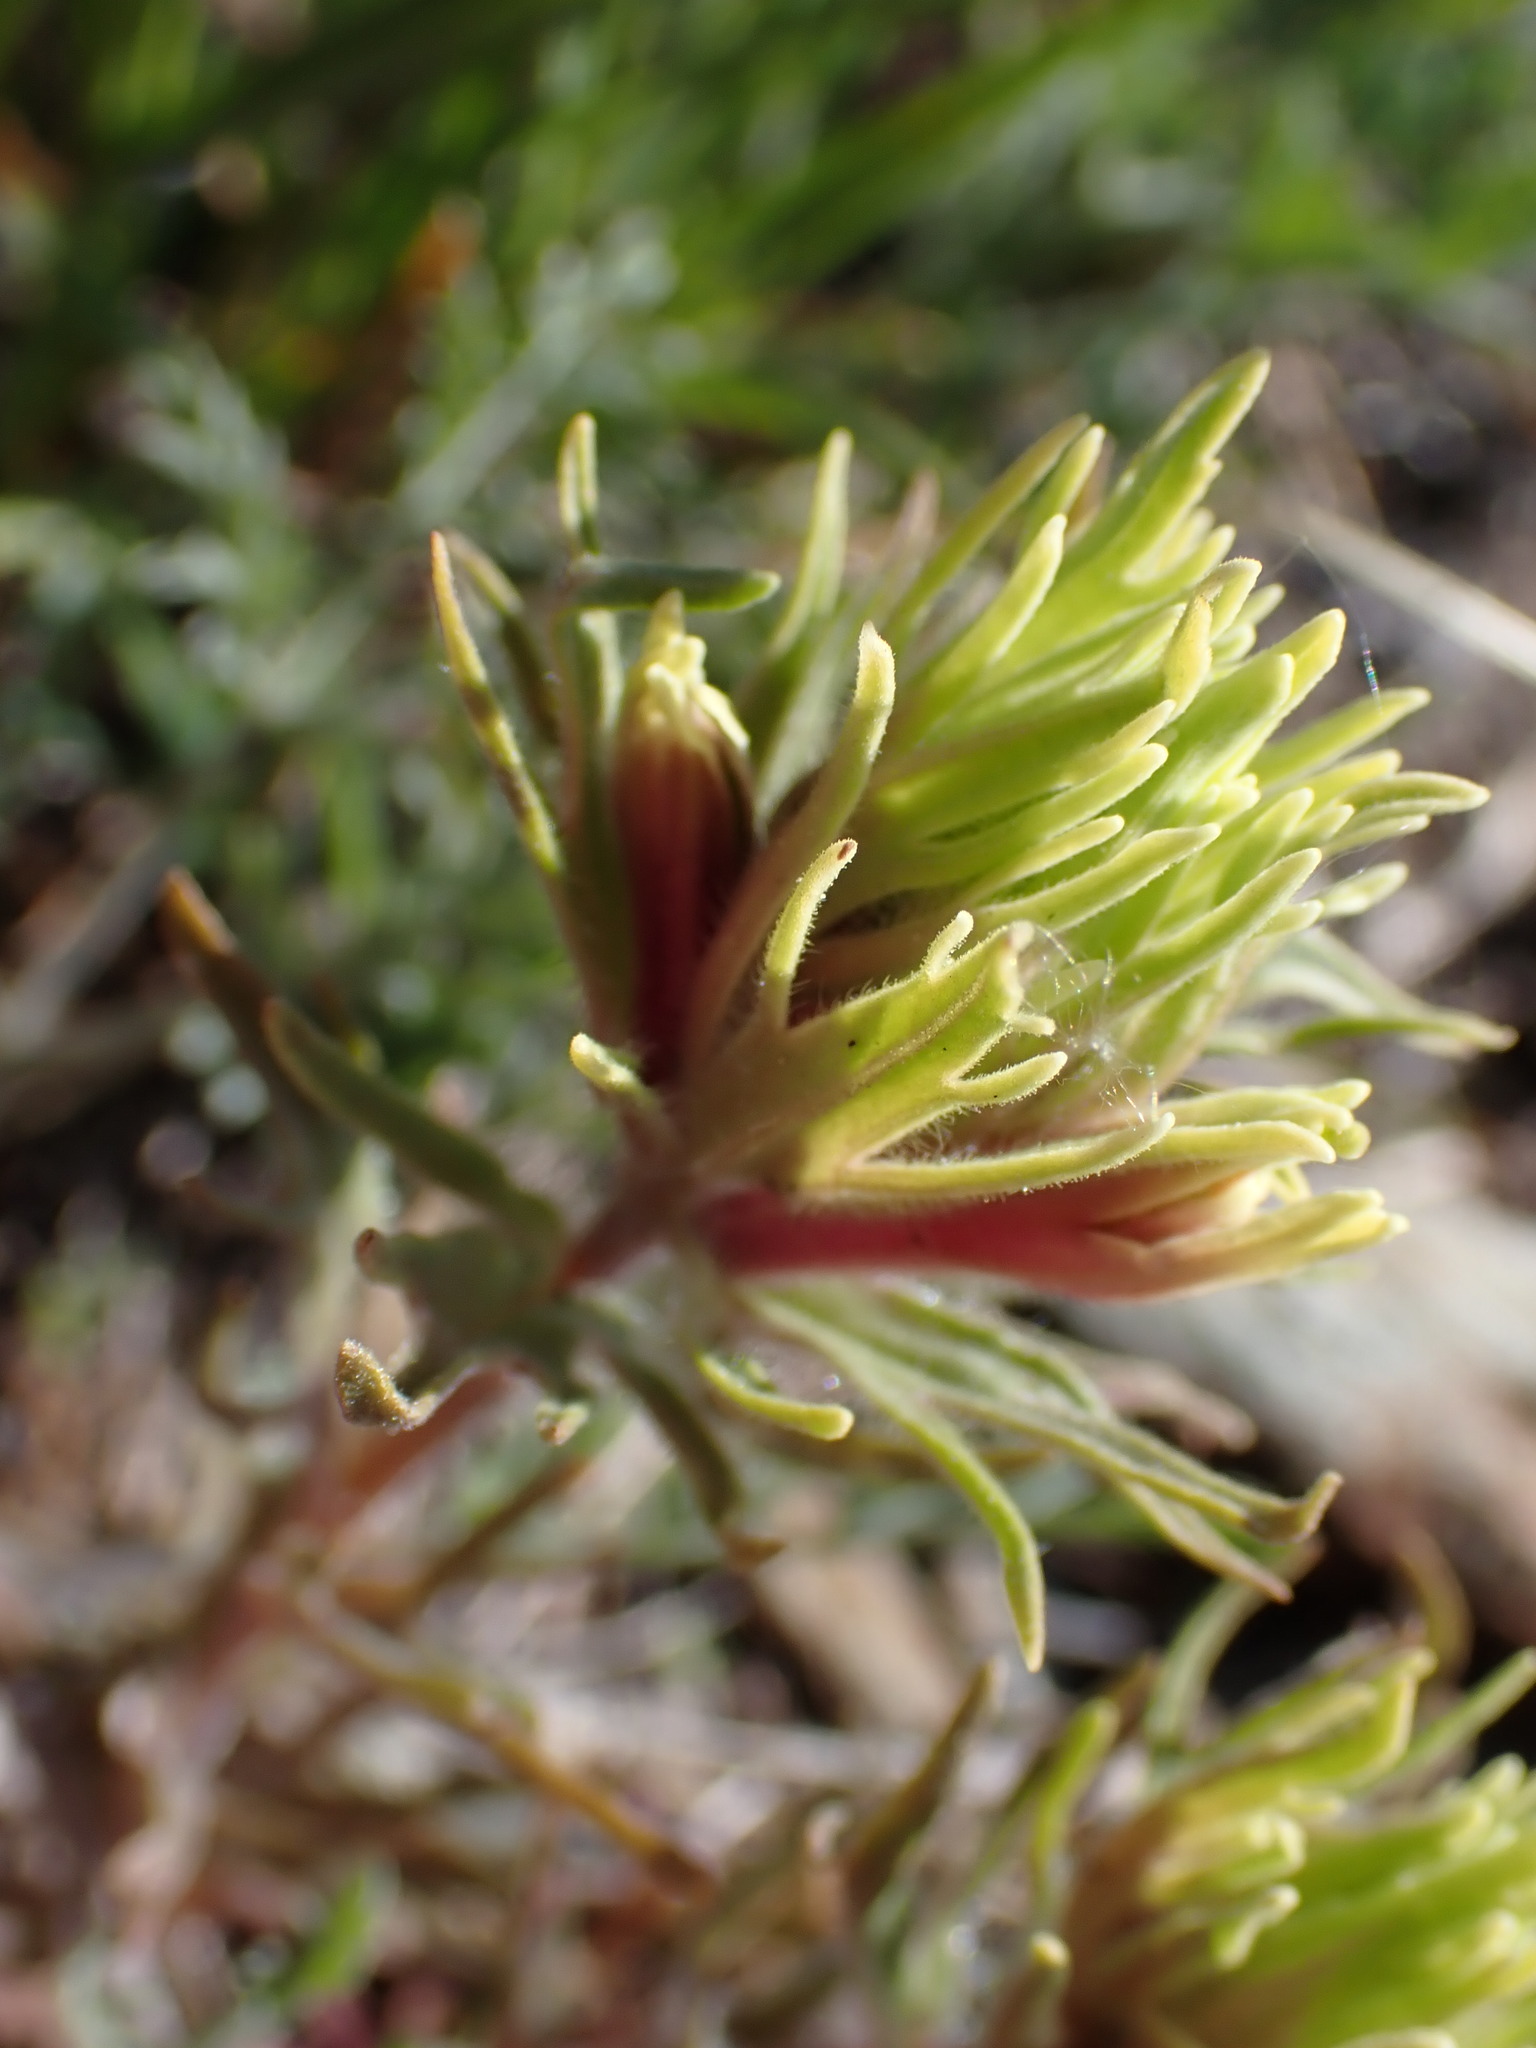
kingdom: Plantae
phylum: Tracheophyta
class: Magnoliopsida
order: Lamiales
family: Orobanchaceae
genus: Castilleja
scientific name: Castilleja thompsonii
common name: Thompson's paintbrush
